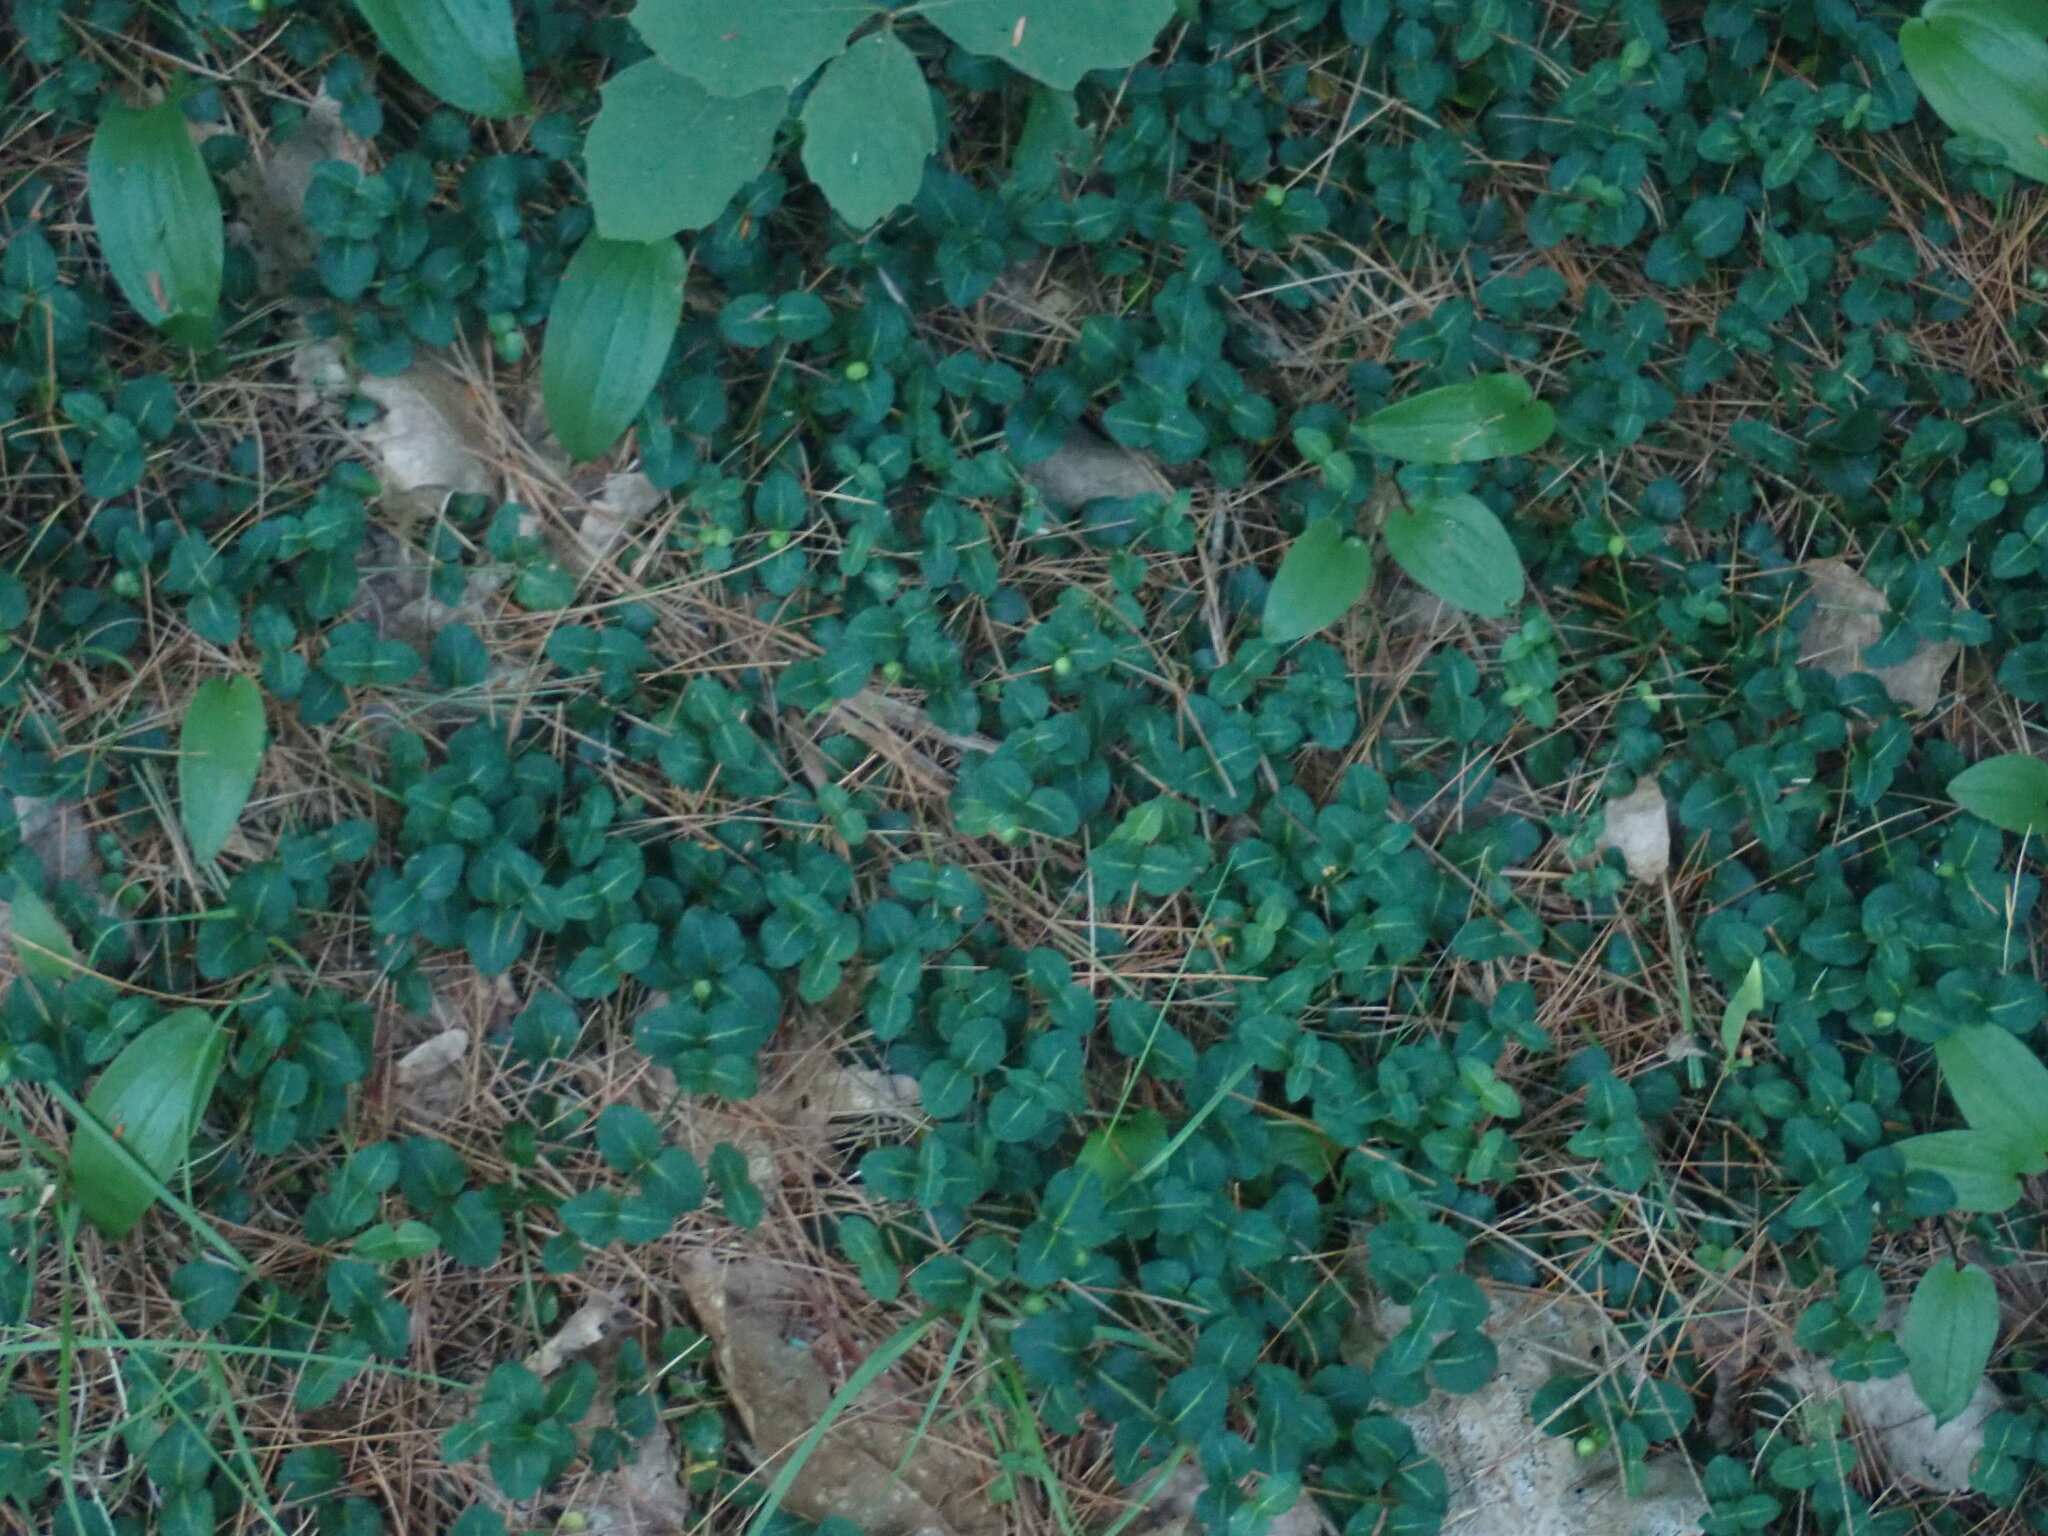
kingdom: Plantae
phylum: Tracheophyta
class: Magnoliopsida
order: Gentianales
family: Rubiaceae
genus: Mitchella
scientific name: Mitchella repens
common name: Partridge-berry
